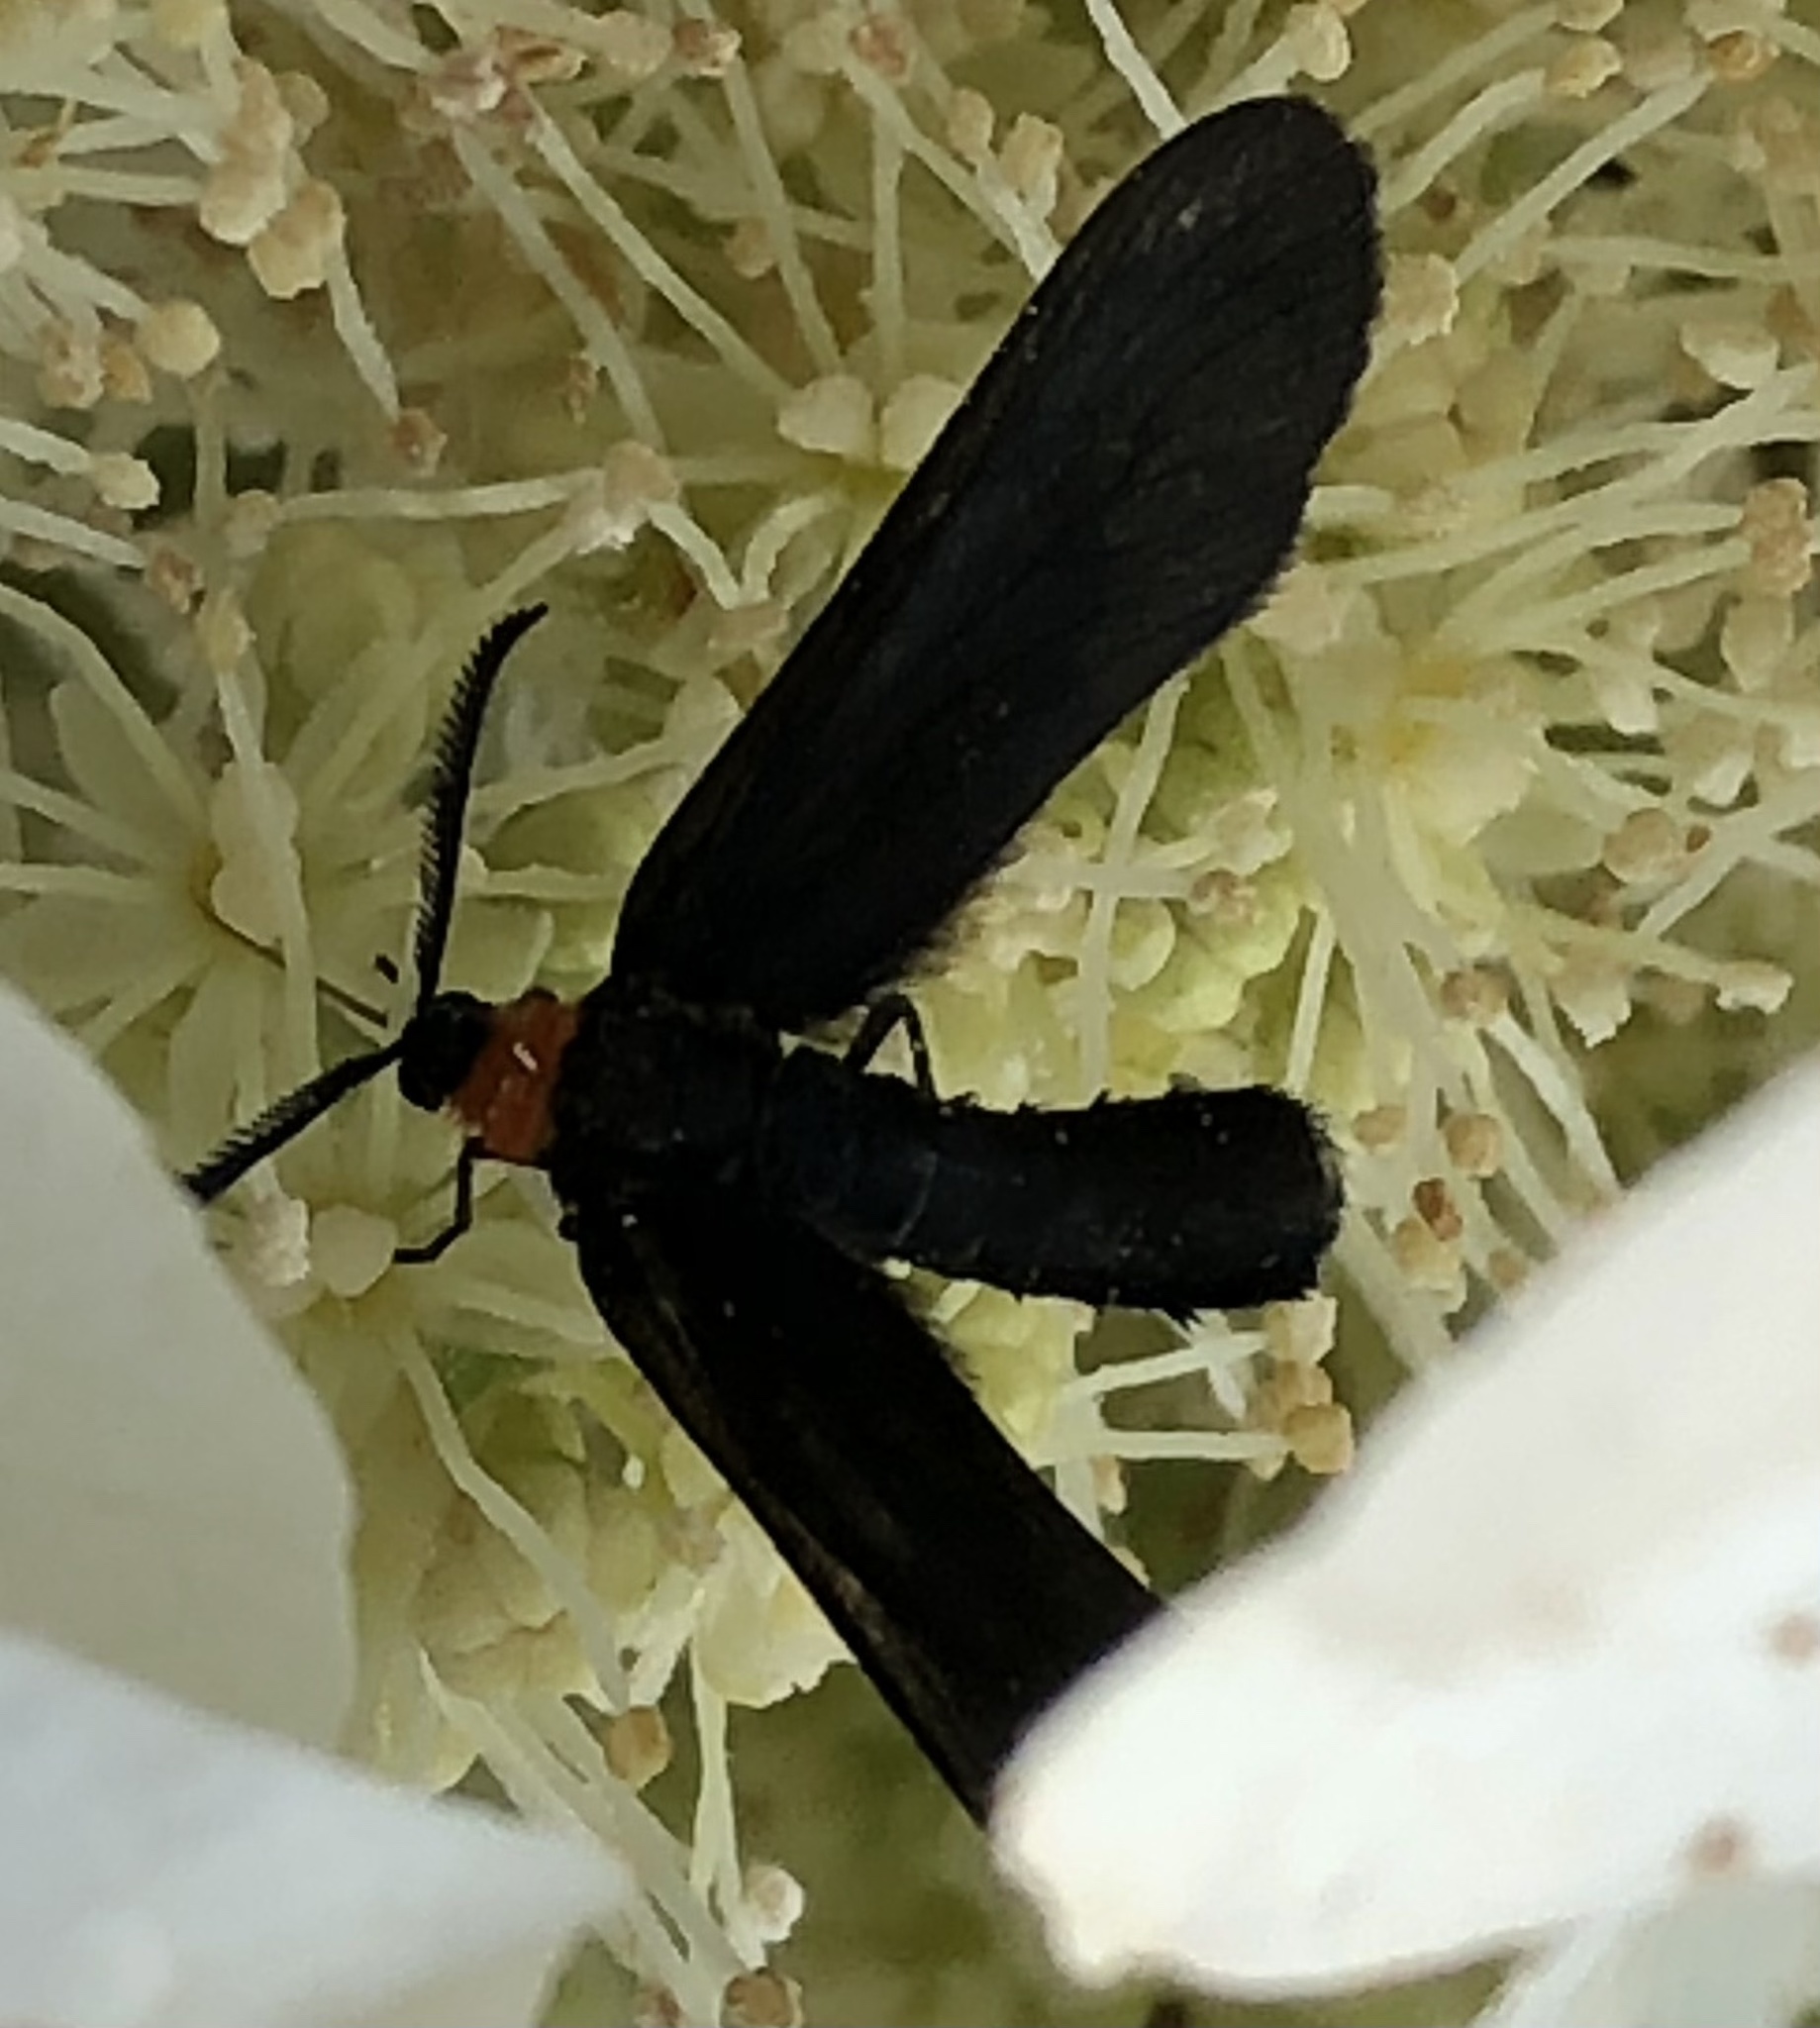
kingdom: Animalia
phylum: Arthropoda
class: Insecta
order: Lepidoptera
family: Zygaenidae
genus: Harrisina
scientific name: Harrisina americana
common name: Grapeleaf skeletonizer moth
